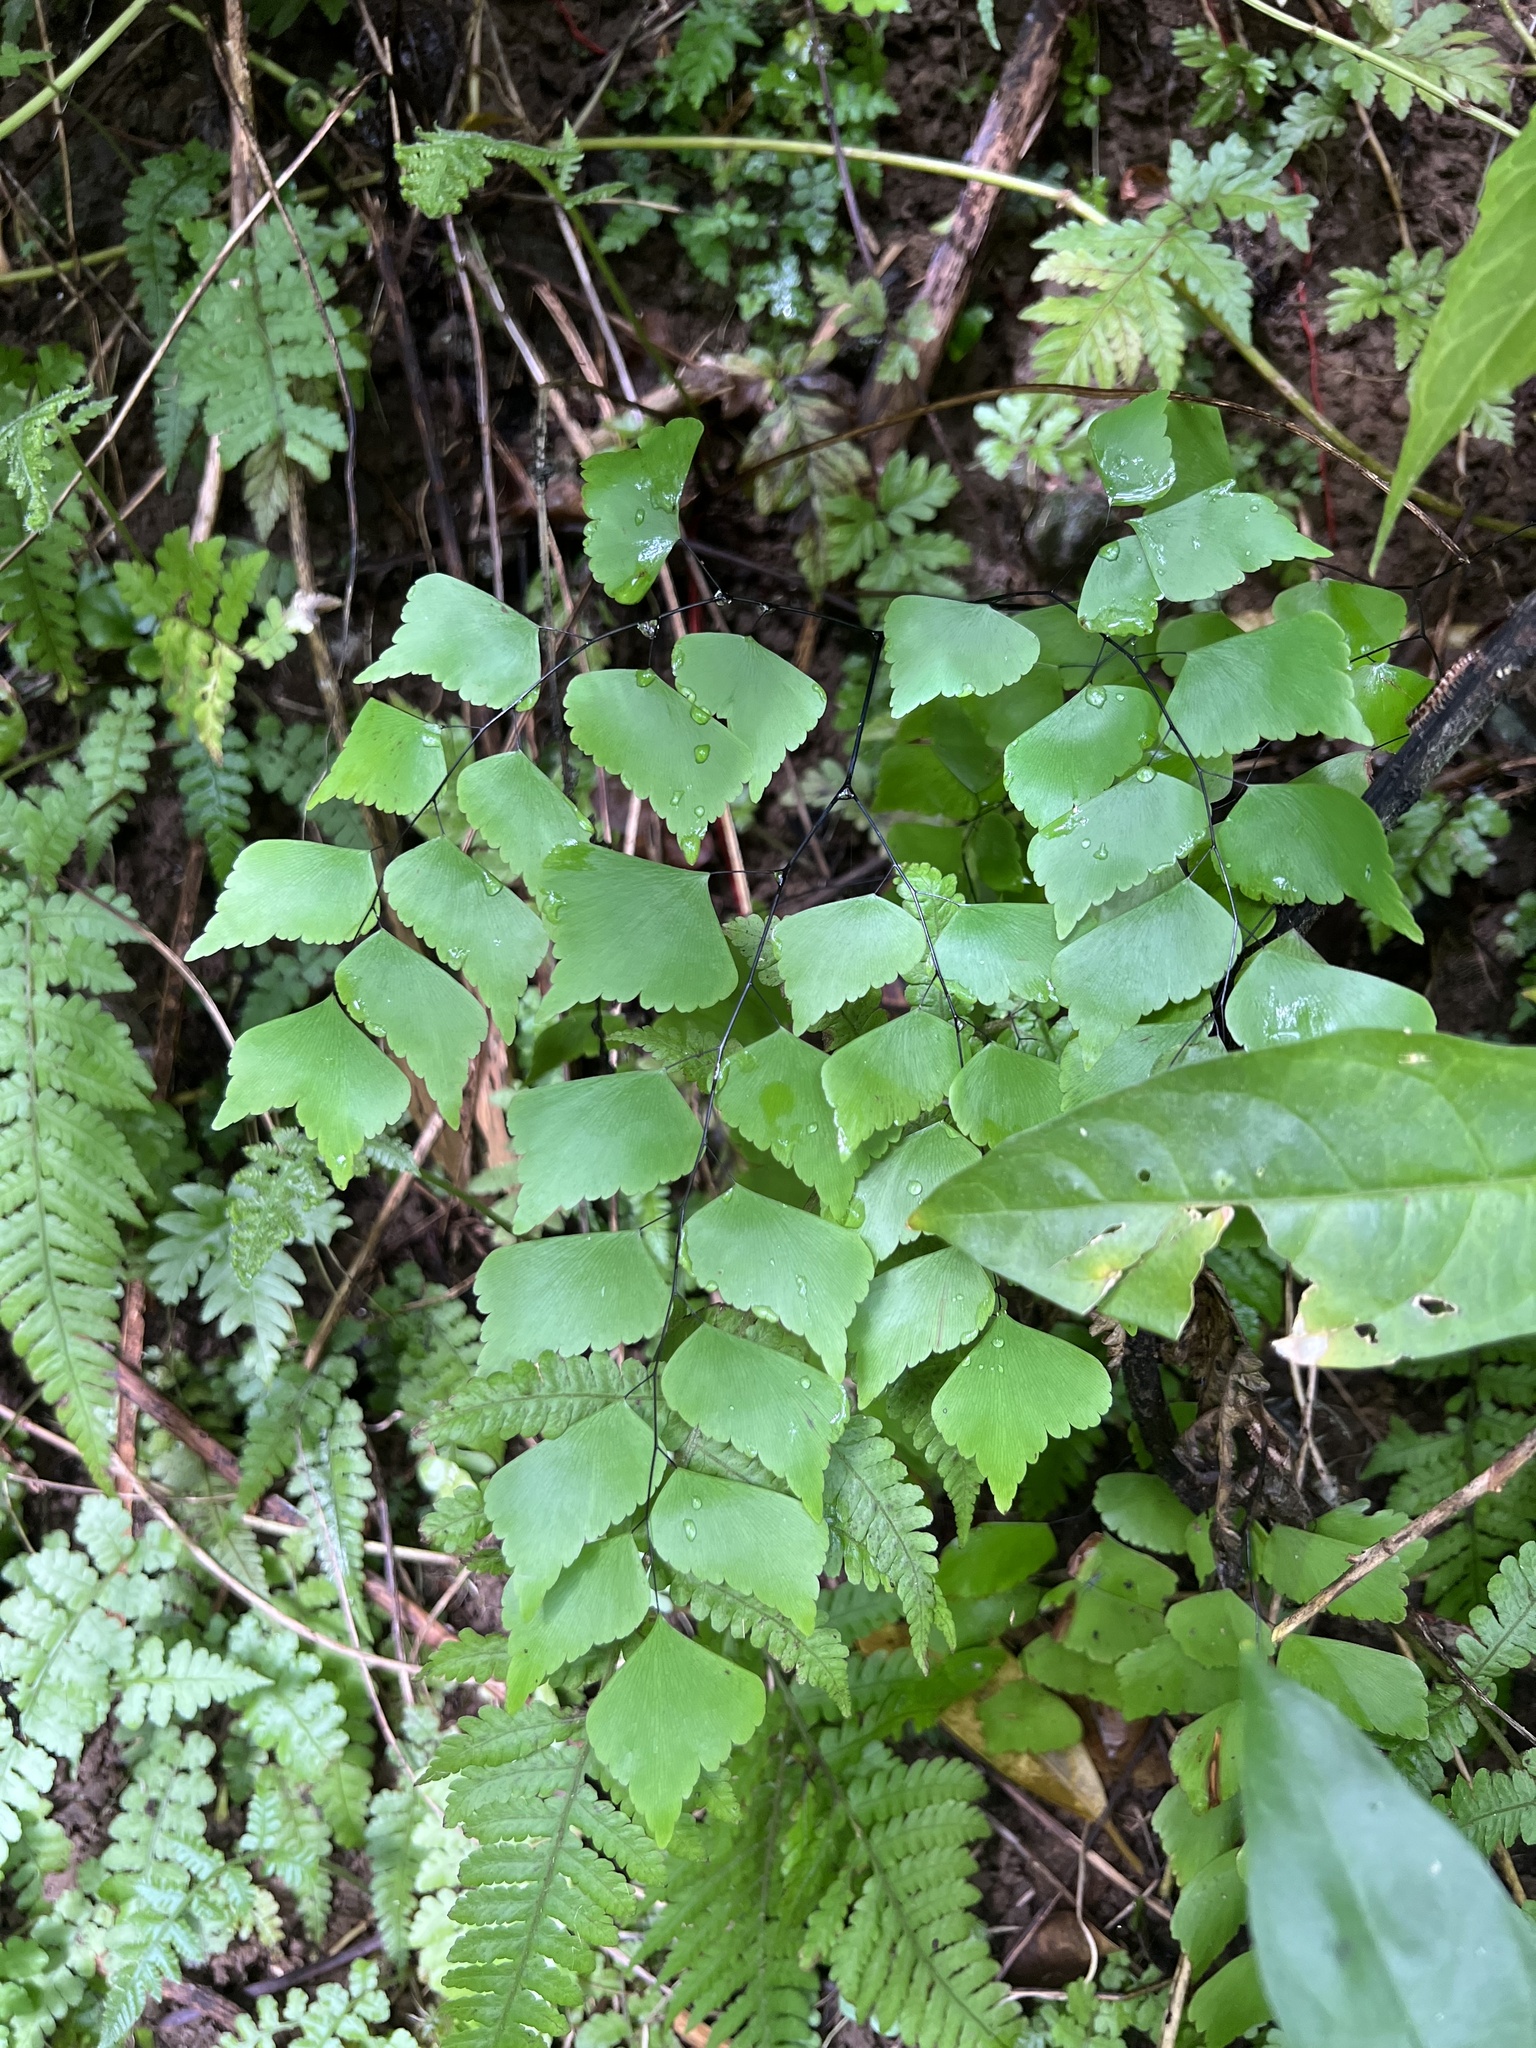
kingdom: Plantae
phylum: Tracheophyta
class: Polypodiopsida
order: Polypodiales
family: Pteridaceae
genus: Adiantum
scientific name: Adiantum trapeziforme
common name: Diamond maidenhair
